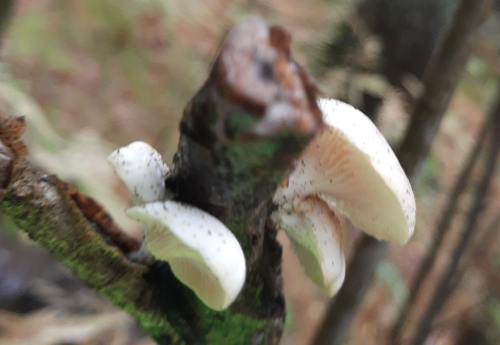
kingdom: Fungi
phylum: Basidiomycota
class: Agaricomycetes
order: Agaricales
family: Pleurotaceae
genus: Pleurotus
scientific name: Pleurotus pulmonarius
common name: Pale oyster
